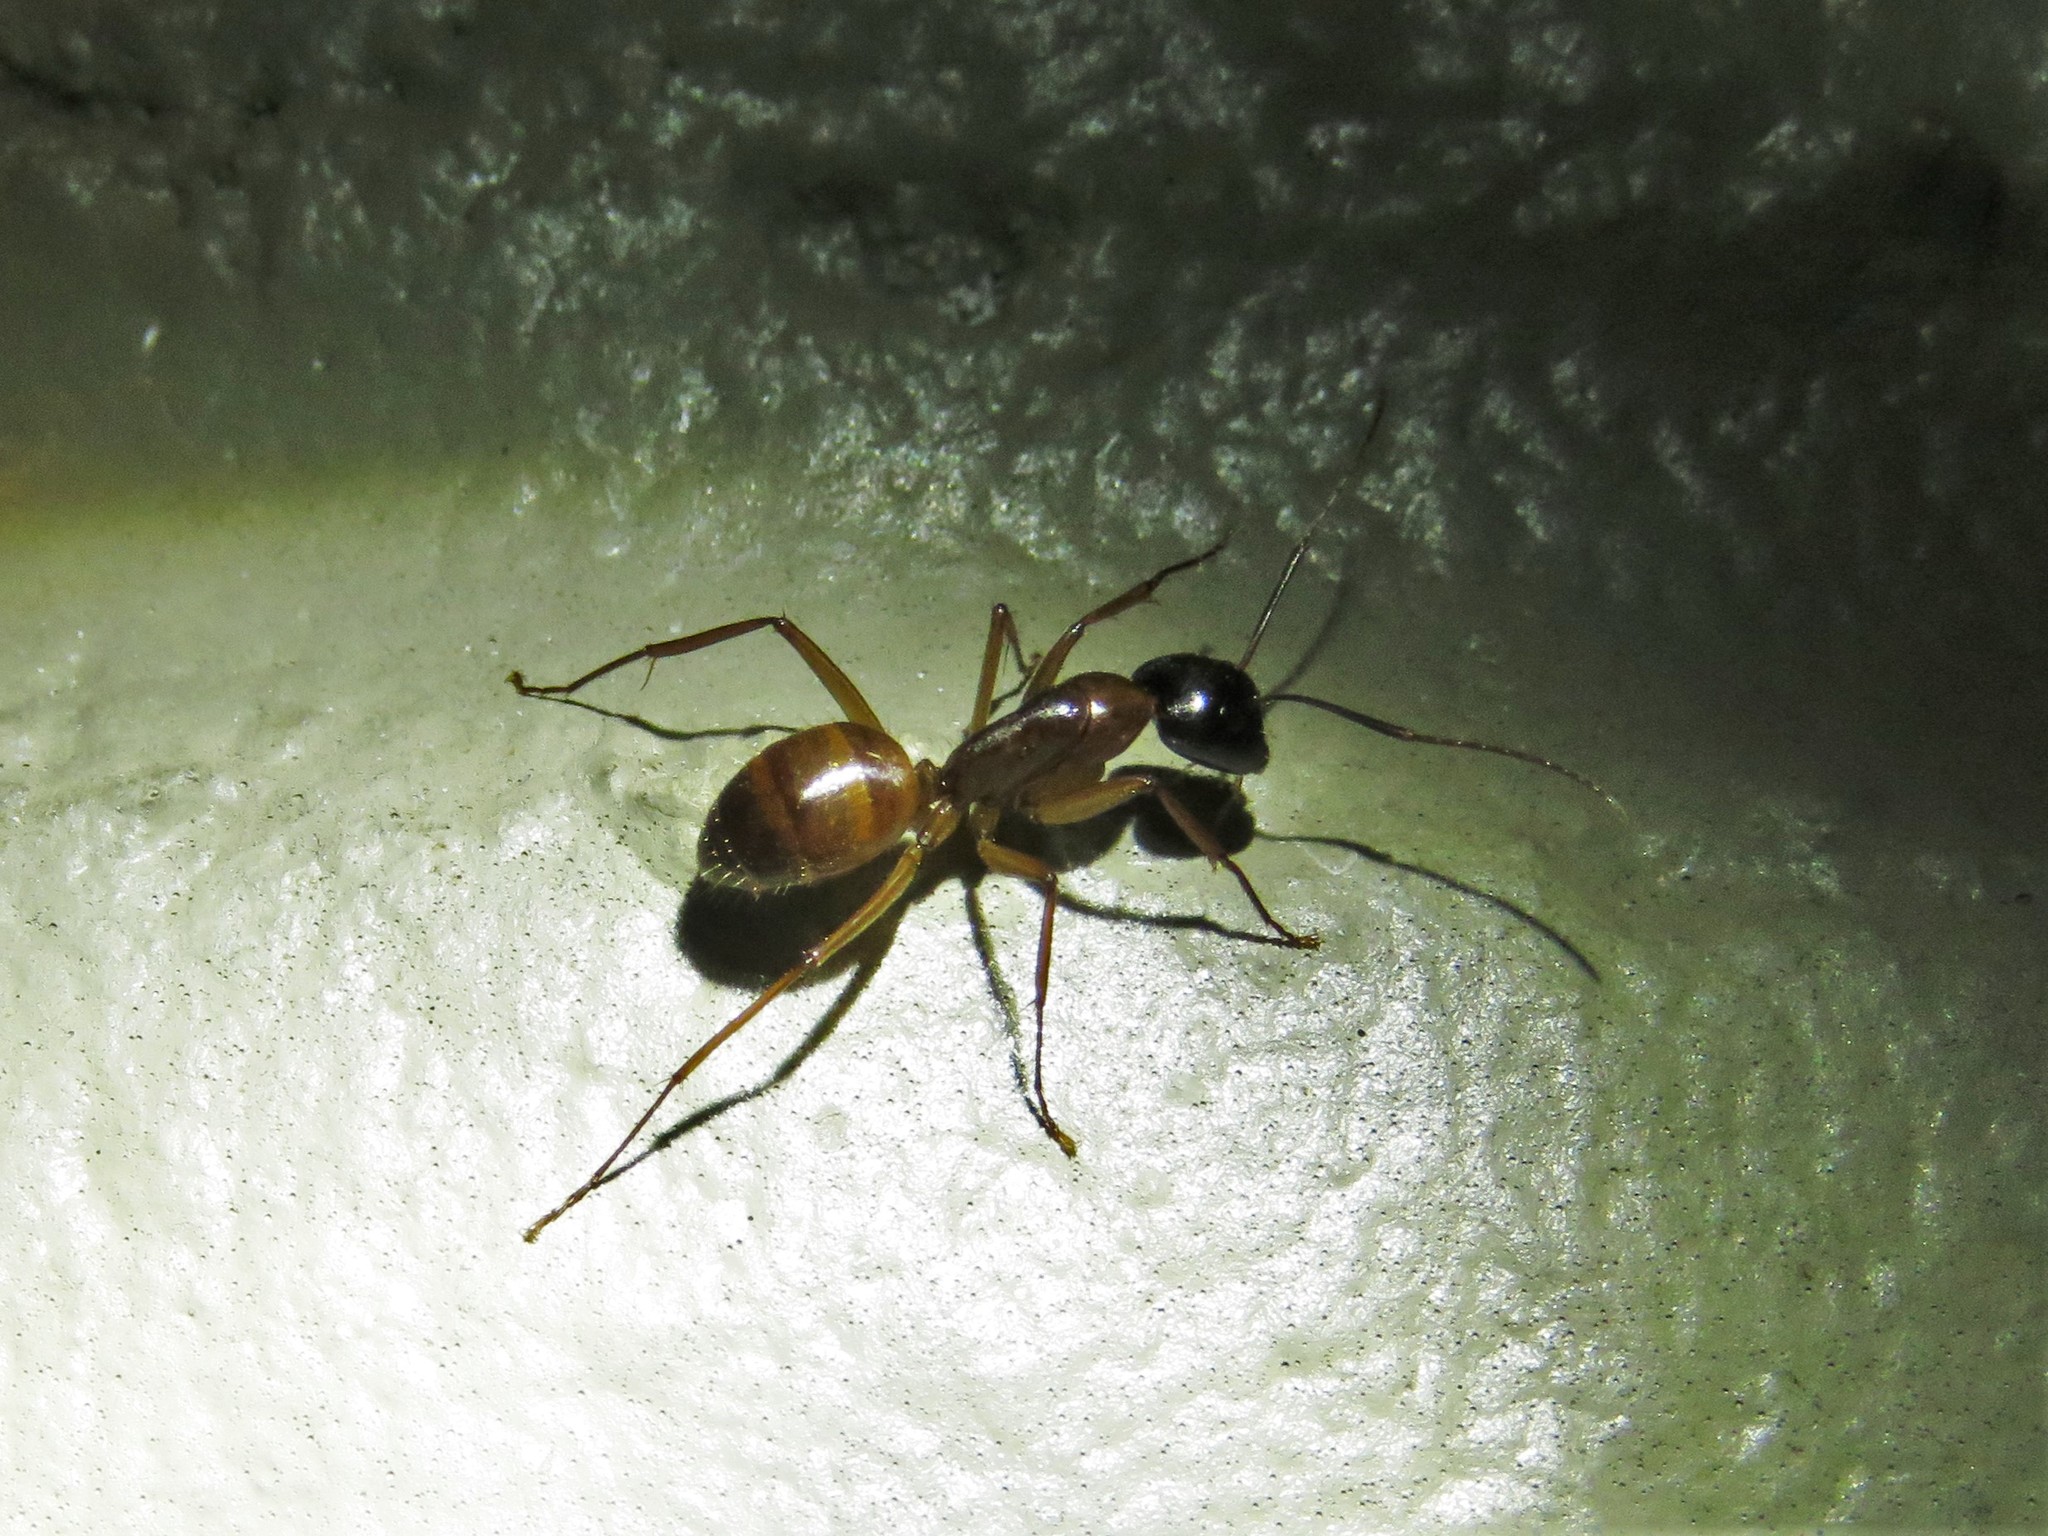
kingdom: Animalia
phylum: Arthropoda
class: Insecta
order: Hymenoptera
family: Formicidae
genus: Camponotus
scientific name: Camponotus americanus
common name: American carpenter ant
